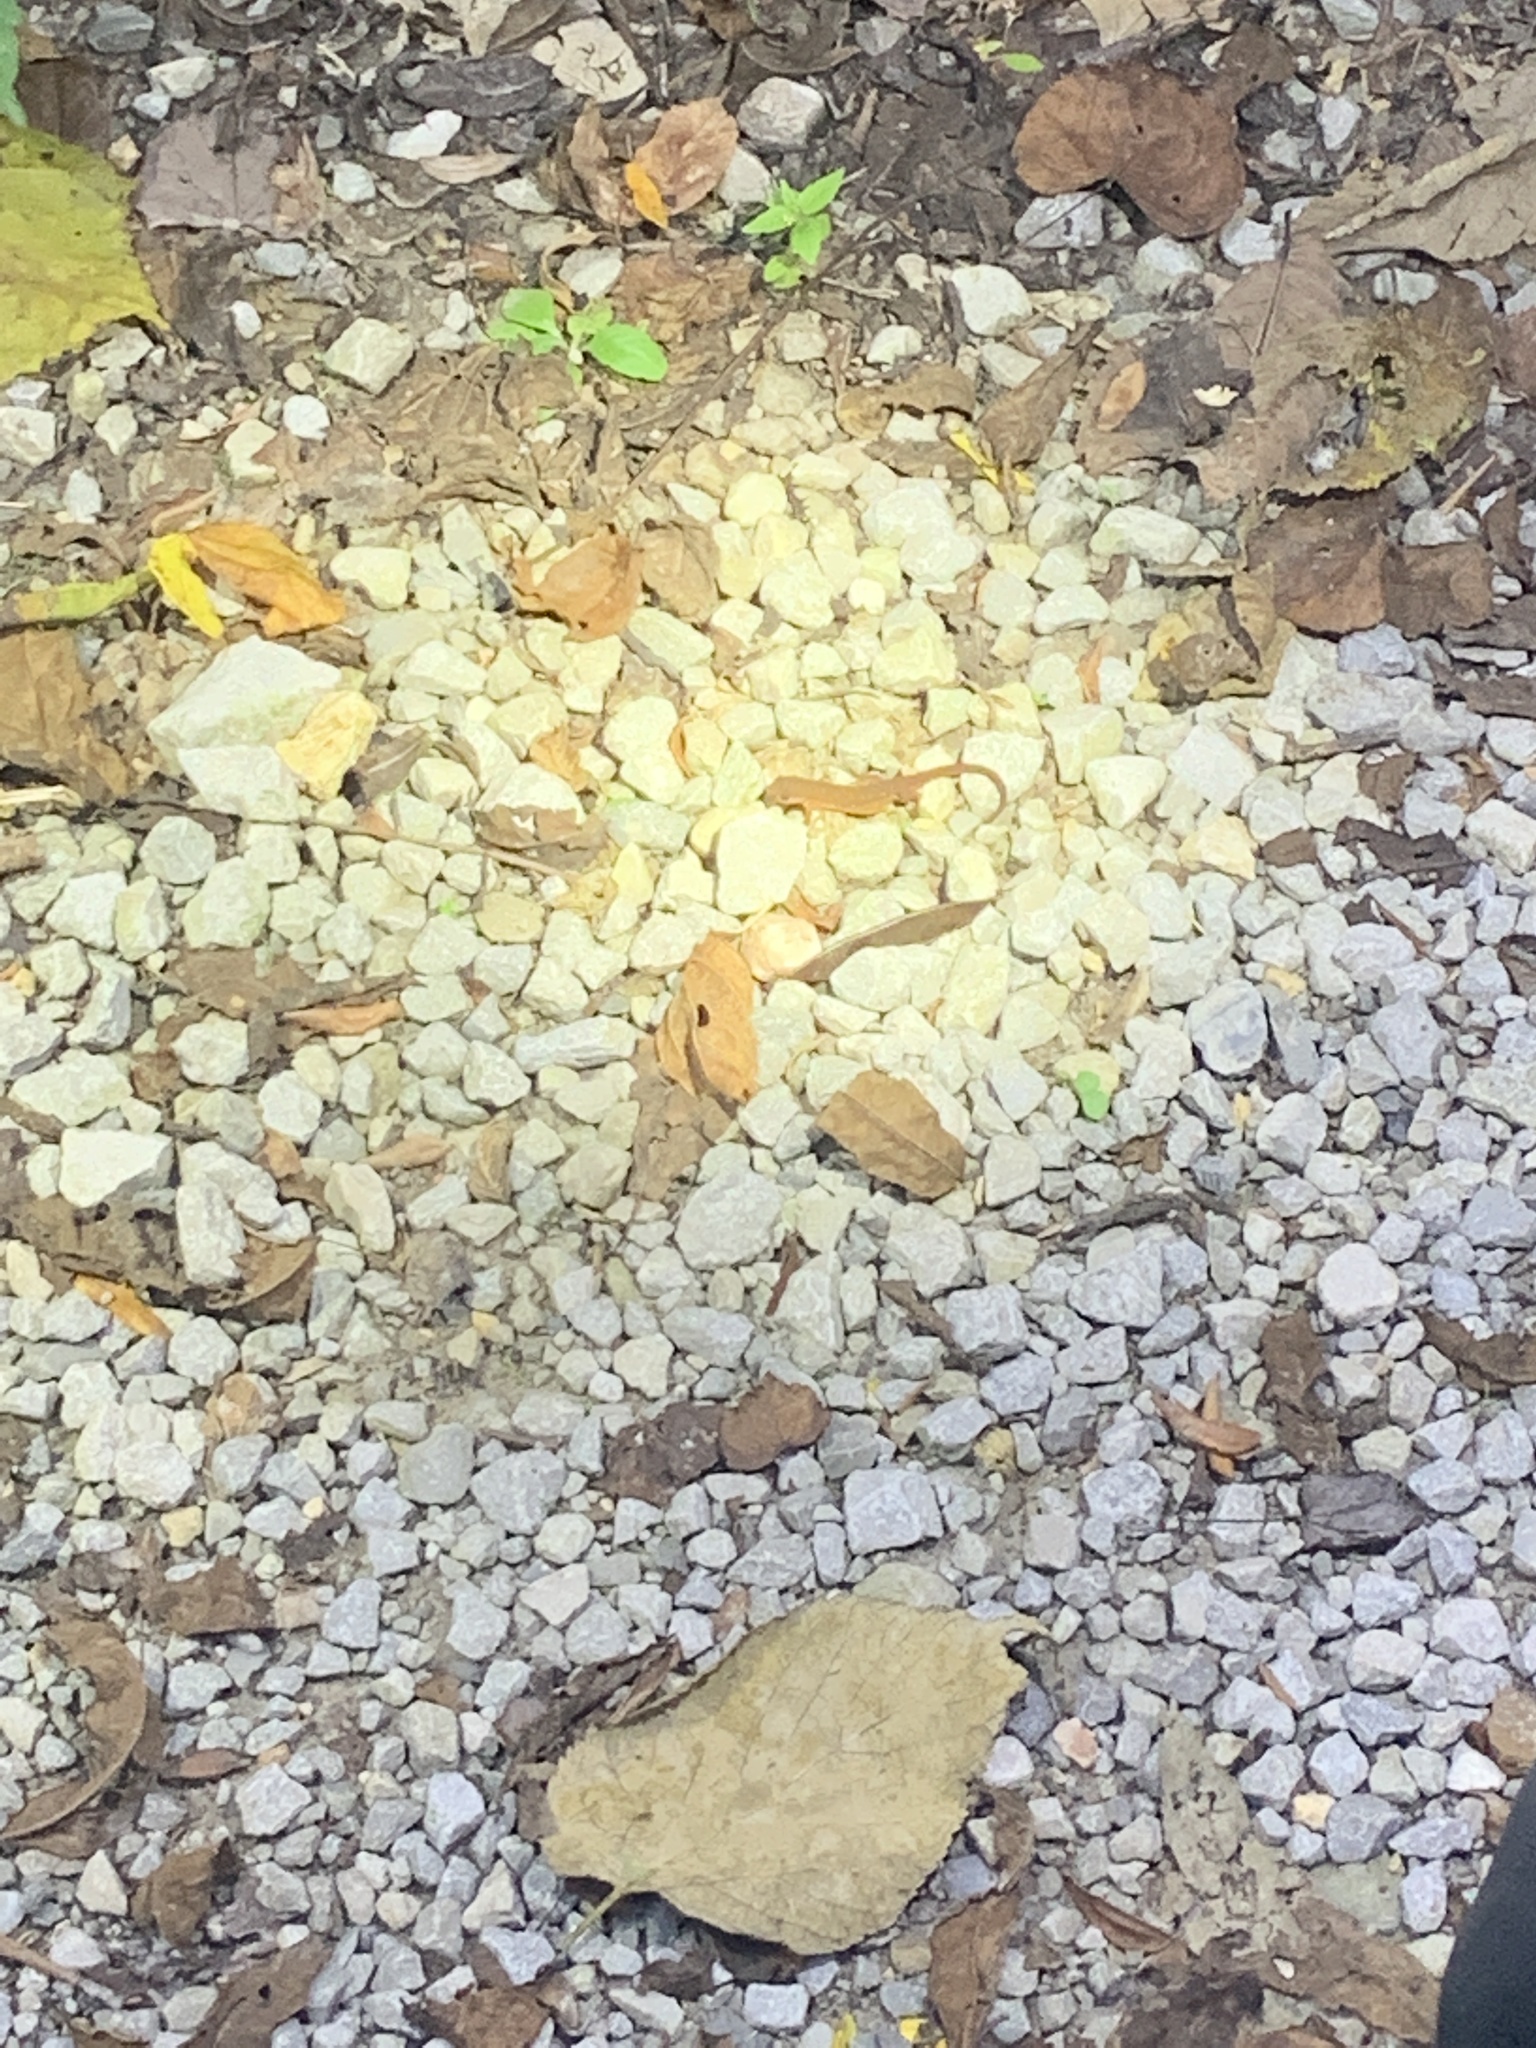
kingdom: Animalia
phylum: Chordata
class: Amphibia
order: Caudata
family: Salamandridae
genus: Notophthalmus
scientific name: Notophthalmus viridescens
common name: Eastern newt
